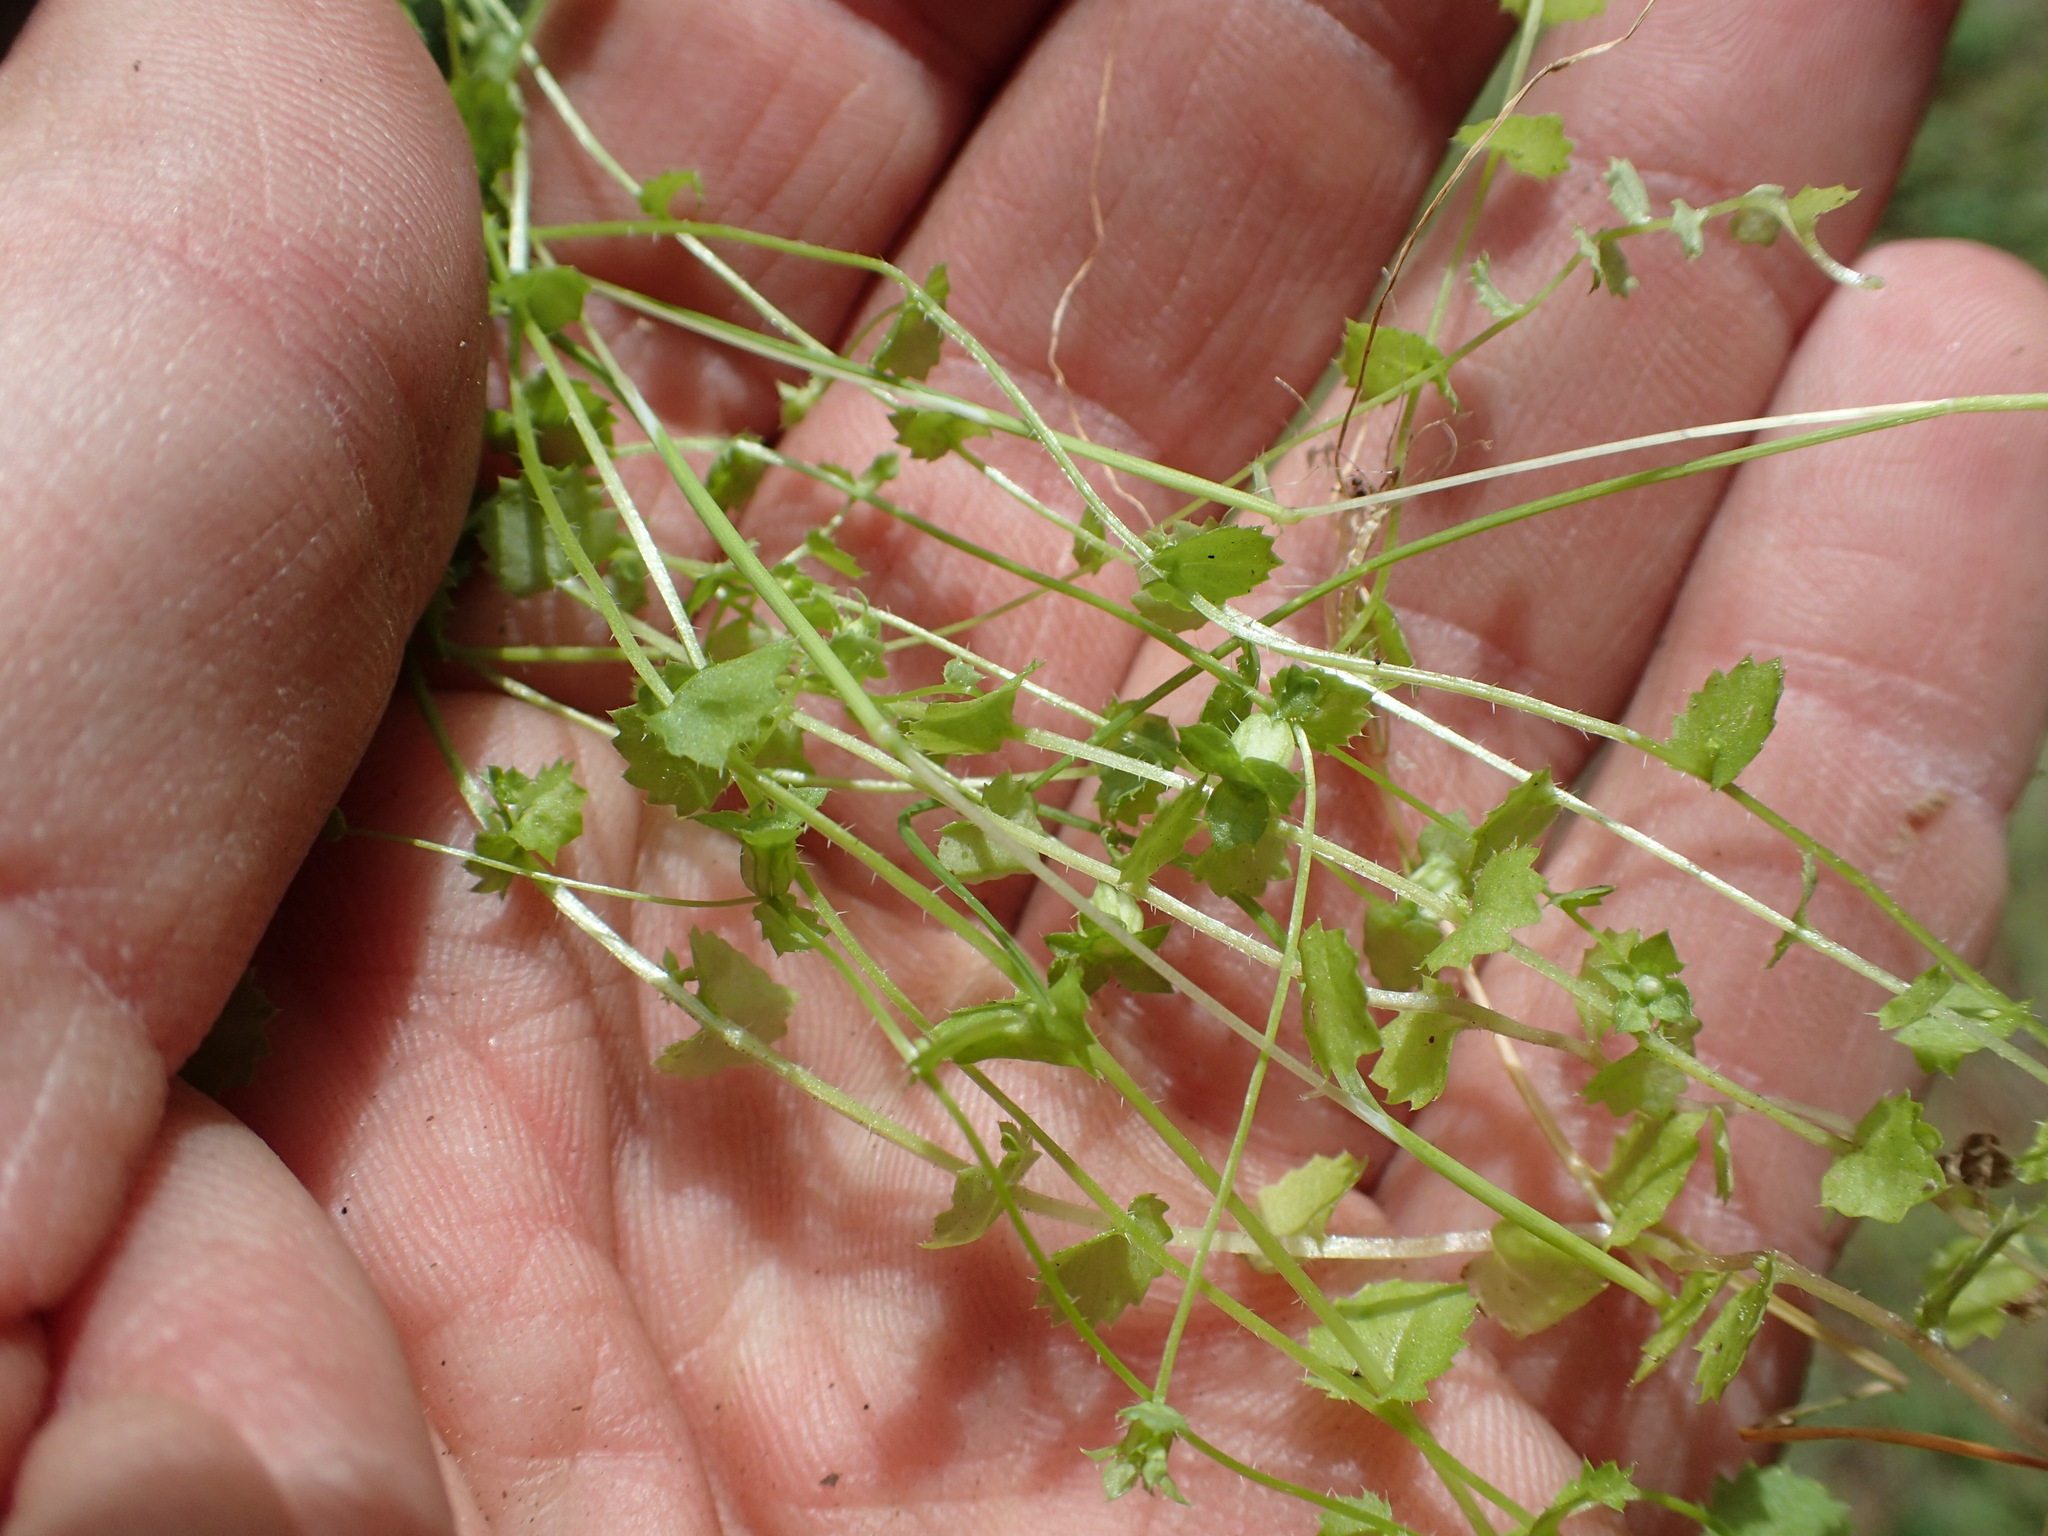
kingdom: Plantae
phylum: Tracheophyta
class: Magnoliopsida
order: Asterales
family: Campanulaceae
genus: Heterocodon
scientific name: Heterocodon rariflorum
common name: Rareflower heterocodon
